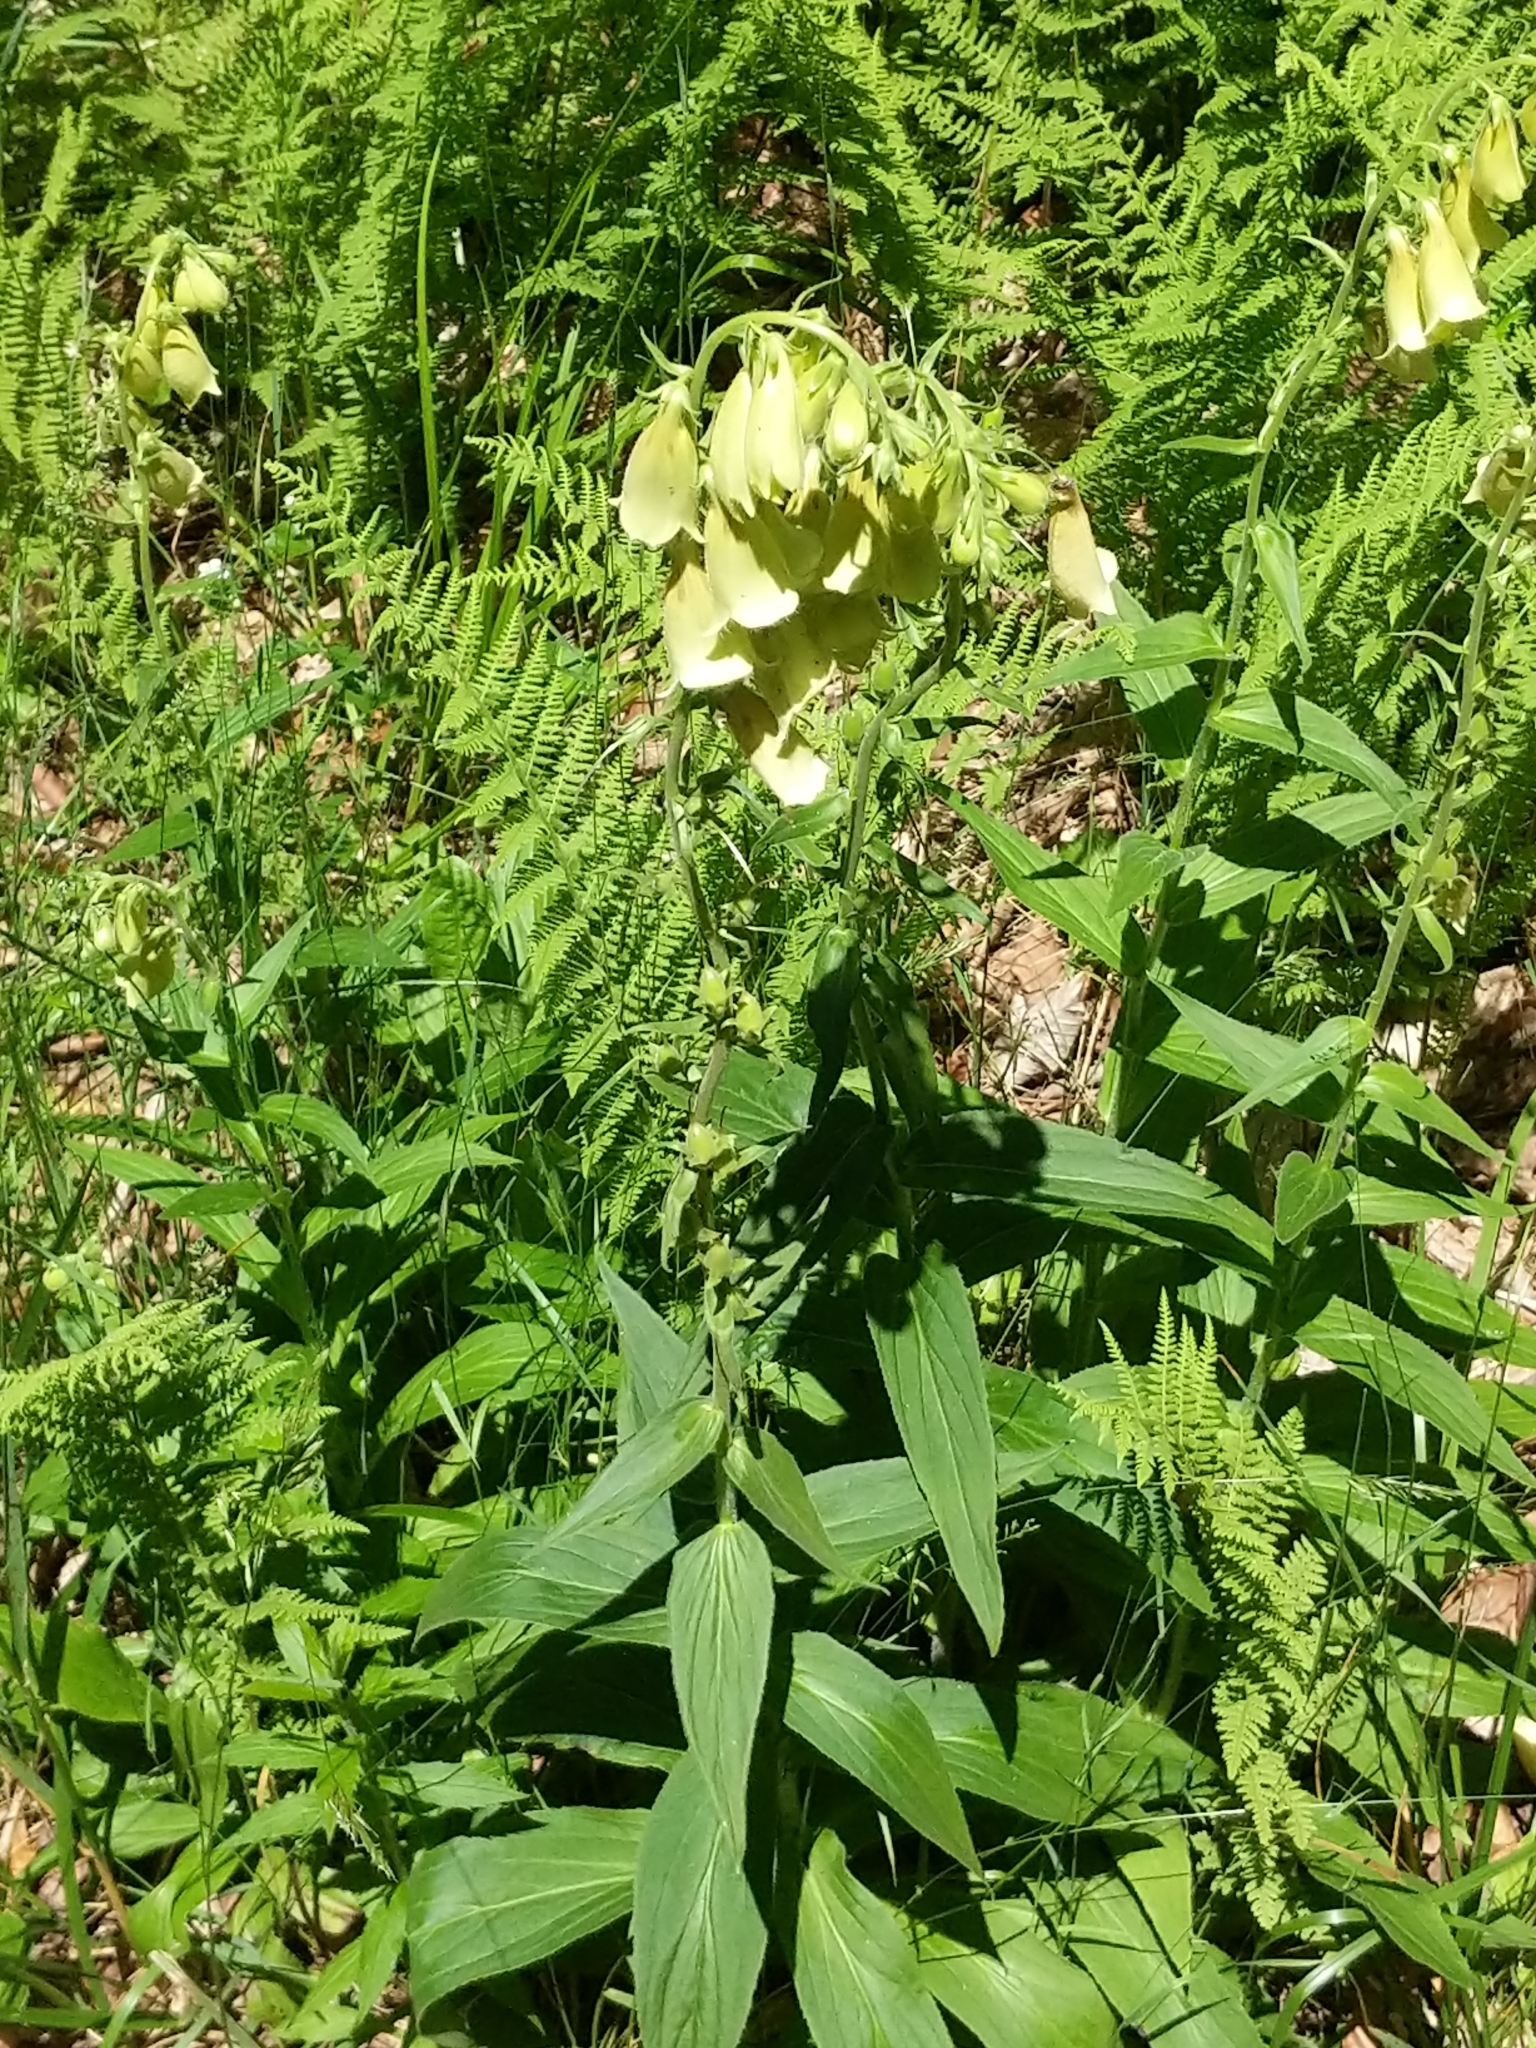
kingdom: Plantae
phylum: Tracheophyta
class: Magnoliopsida
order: Lamiales
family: Plantaginaceae
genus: Digitalis
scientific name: Digitalis grandiflora
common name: Yellow foxglove
